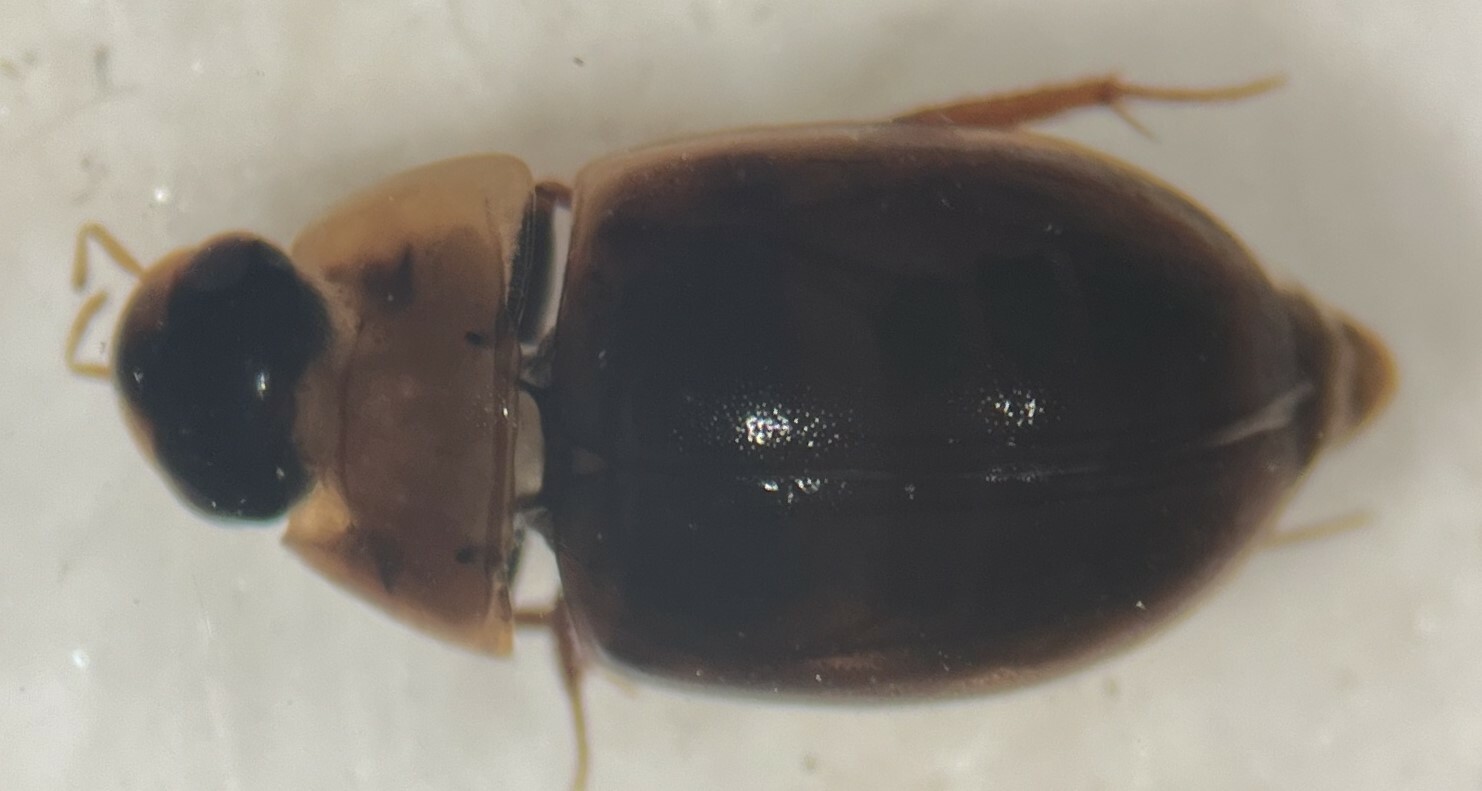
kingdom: Animalia
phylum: Arthropoda
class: Insecta
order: Coleoptera
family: Hydrophilidae
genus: Enochrus
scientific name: Enochrus sayi
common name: Water scavenger beetle
